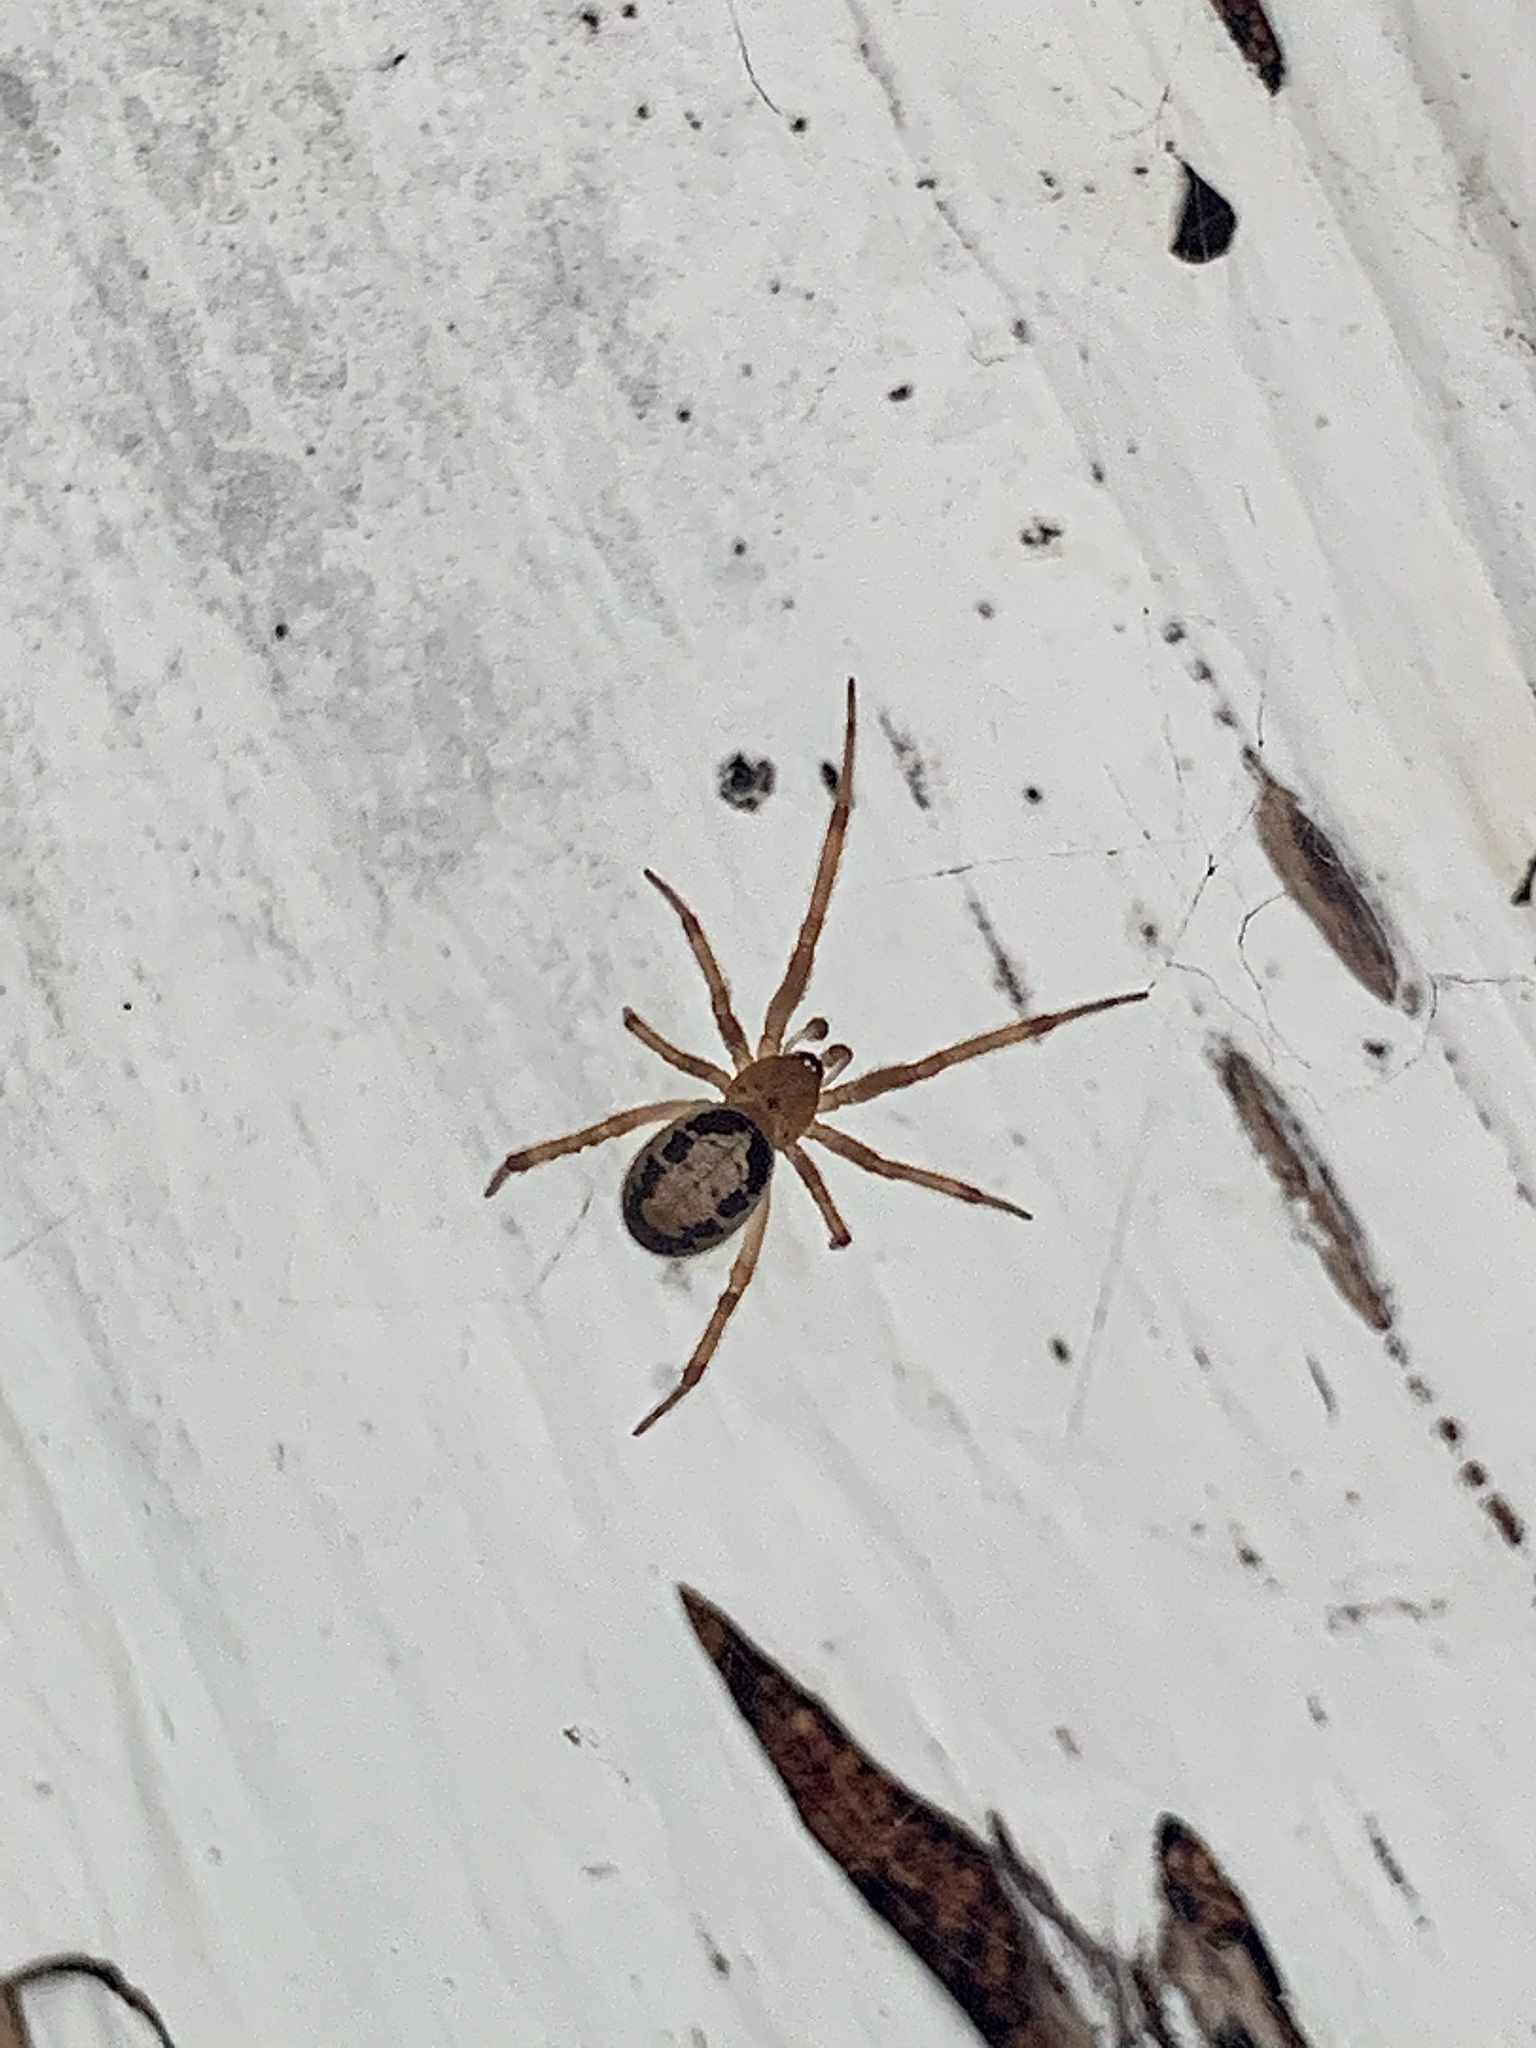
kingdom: Animalia
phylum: Arthropoda
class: Arachnida
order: Araneae
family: Theridiidae
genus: Steatoda
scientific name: Steatoda nobilis
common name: Cobweb weaver
